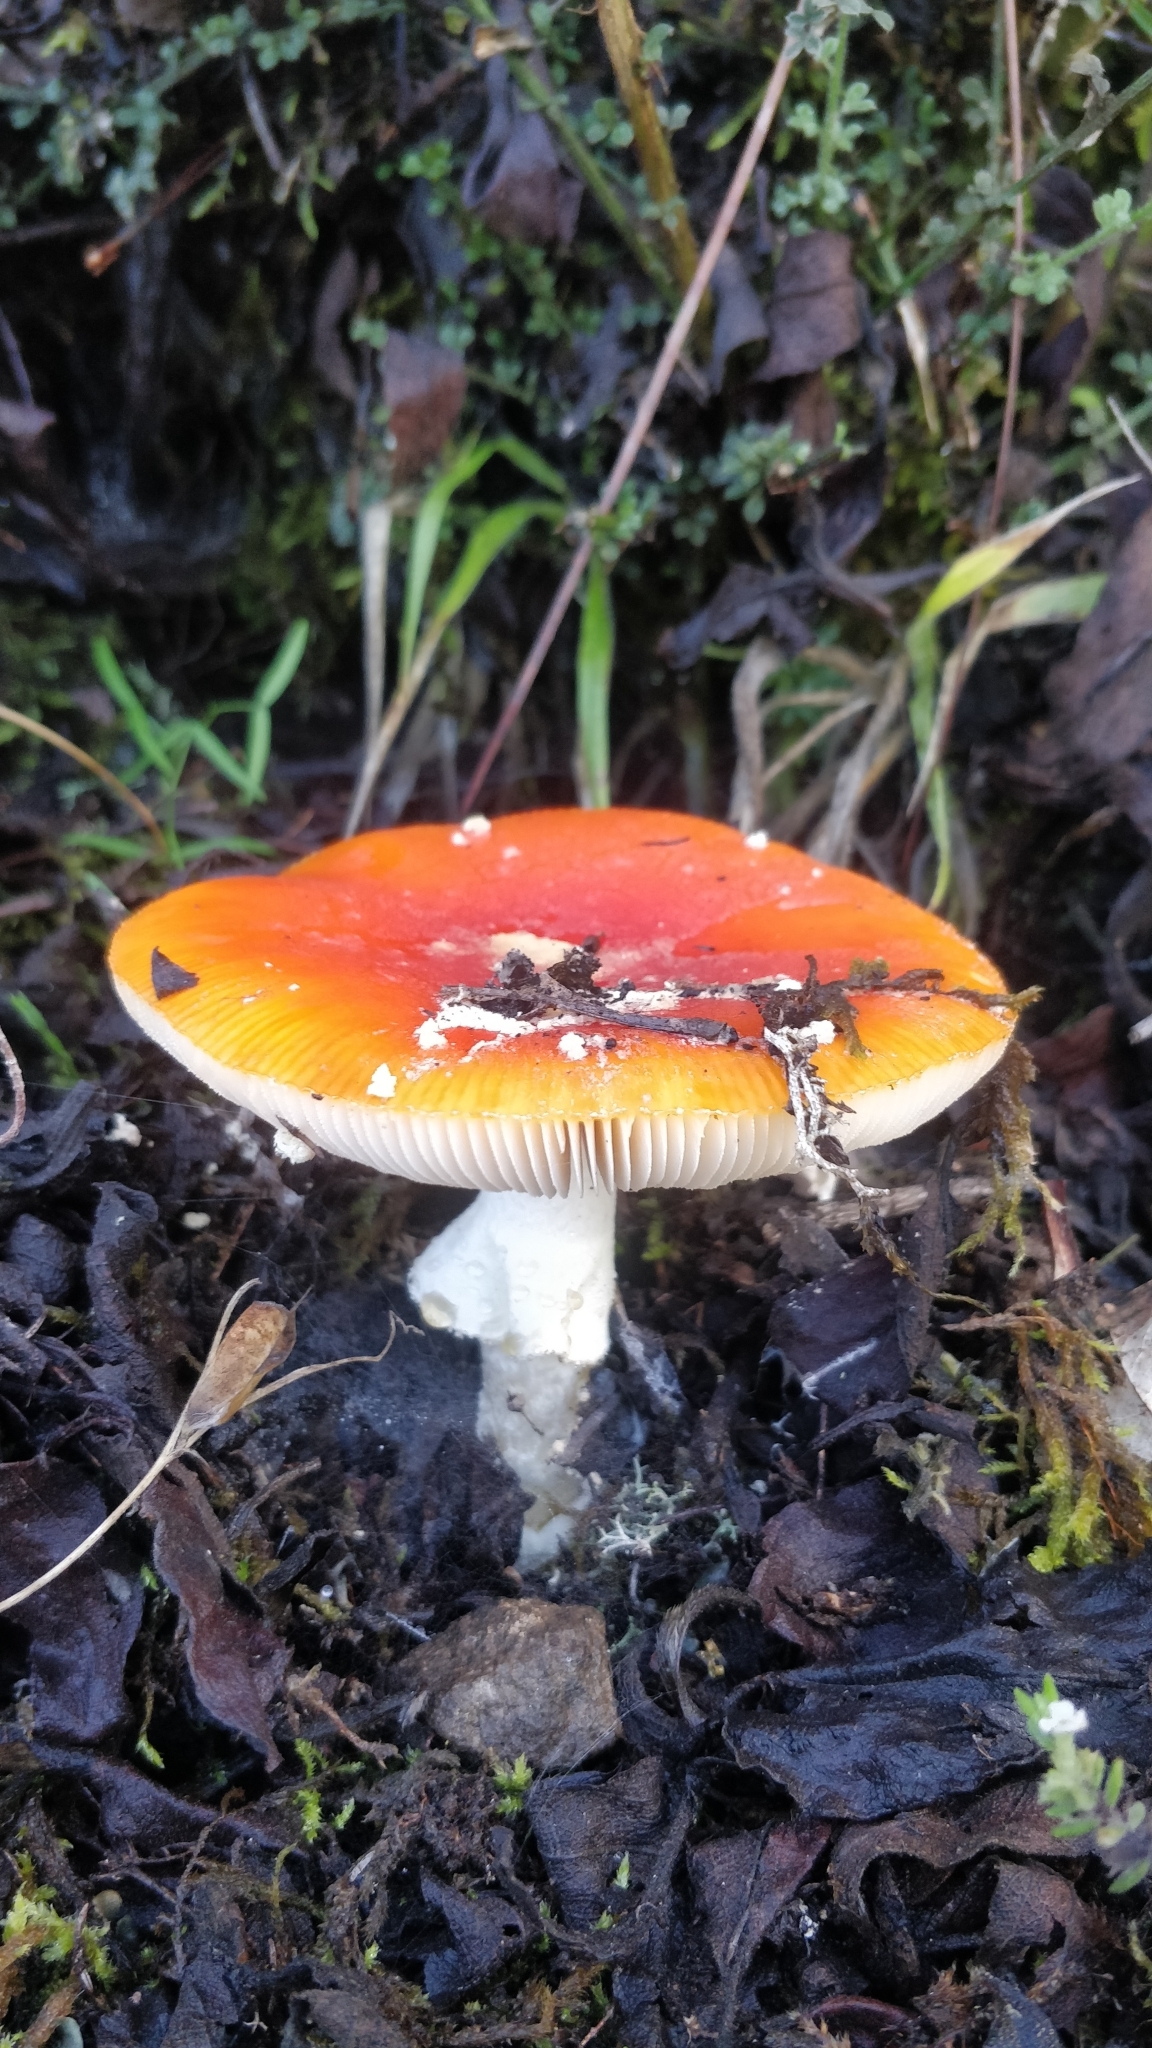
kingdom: Fungi
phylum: Basidiomycota
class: Agaricomycetes
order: Agaricales
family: Amanitaceae
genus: Amanita
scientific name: Amanita muscaria
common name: Fly agaric
